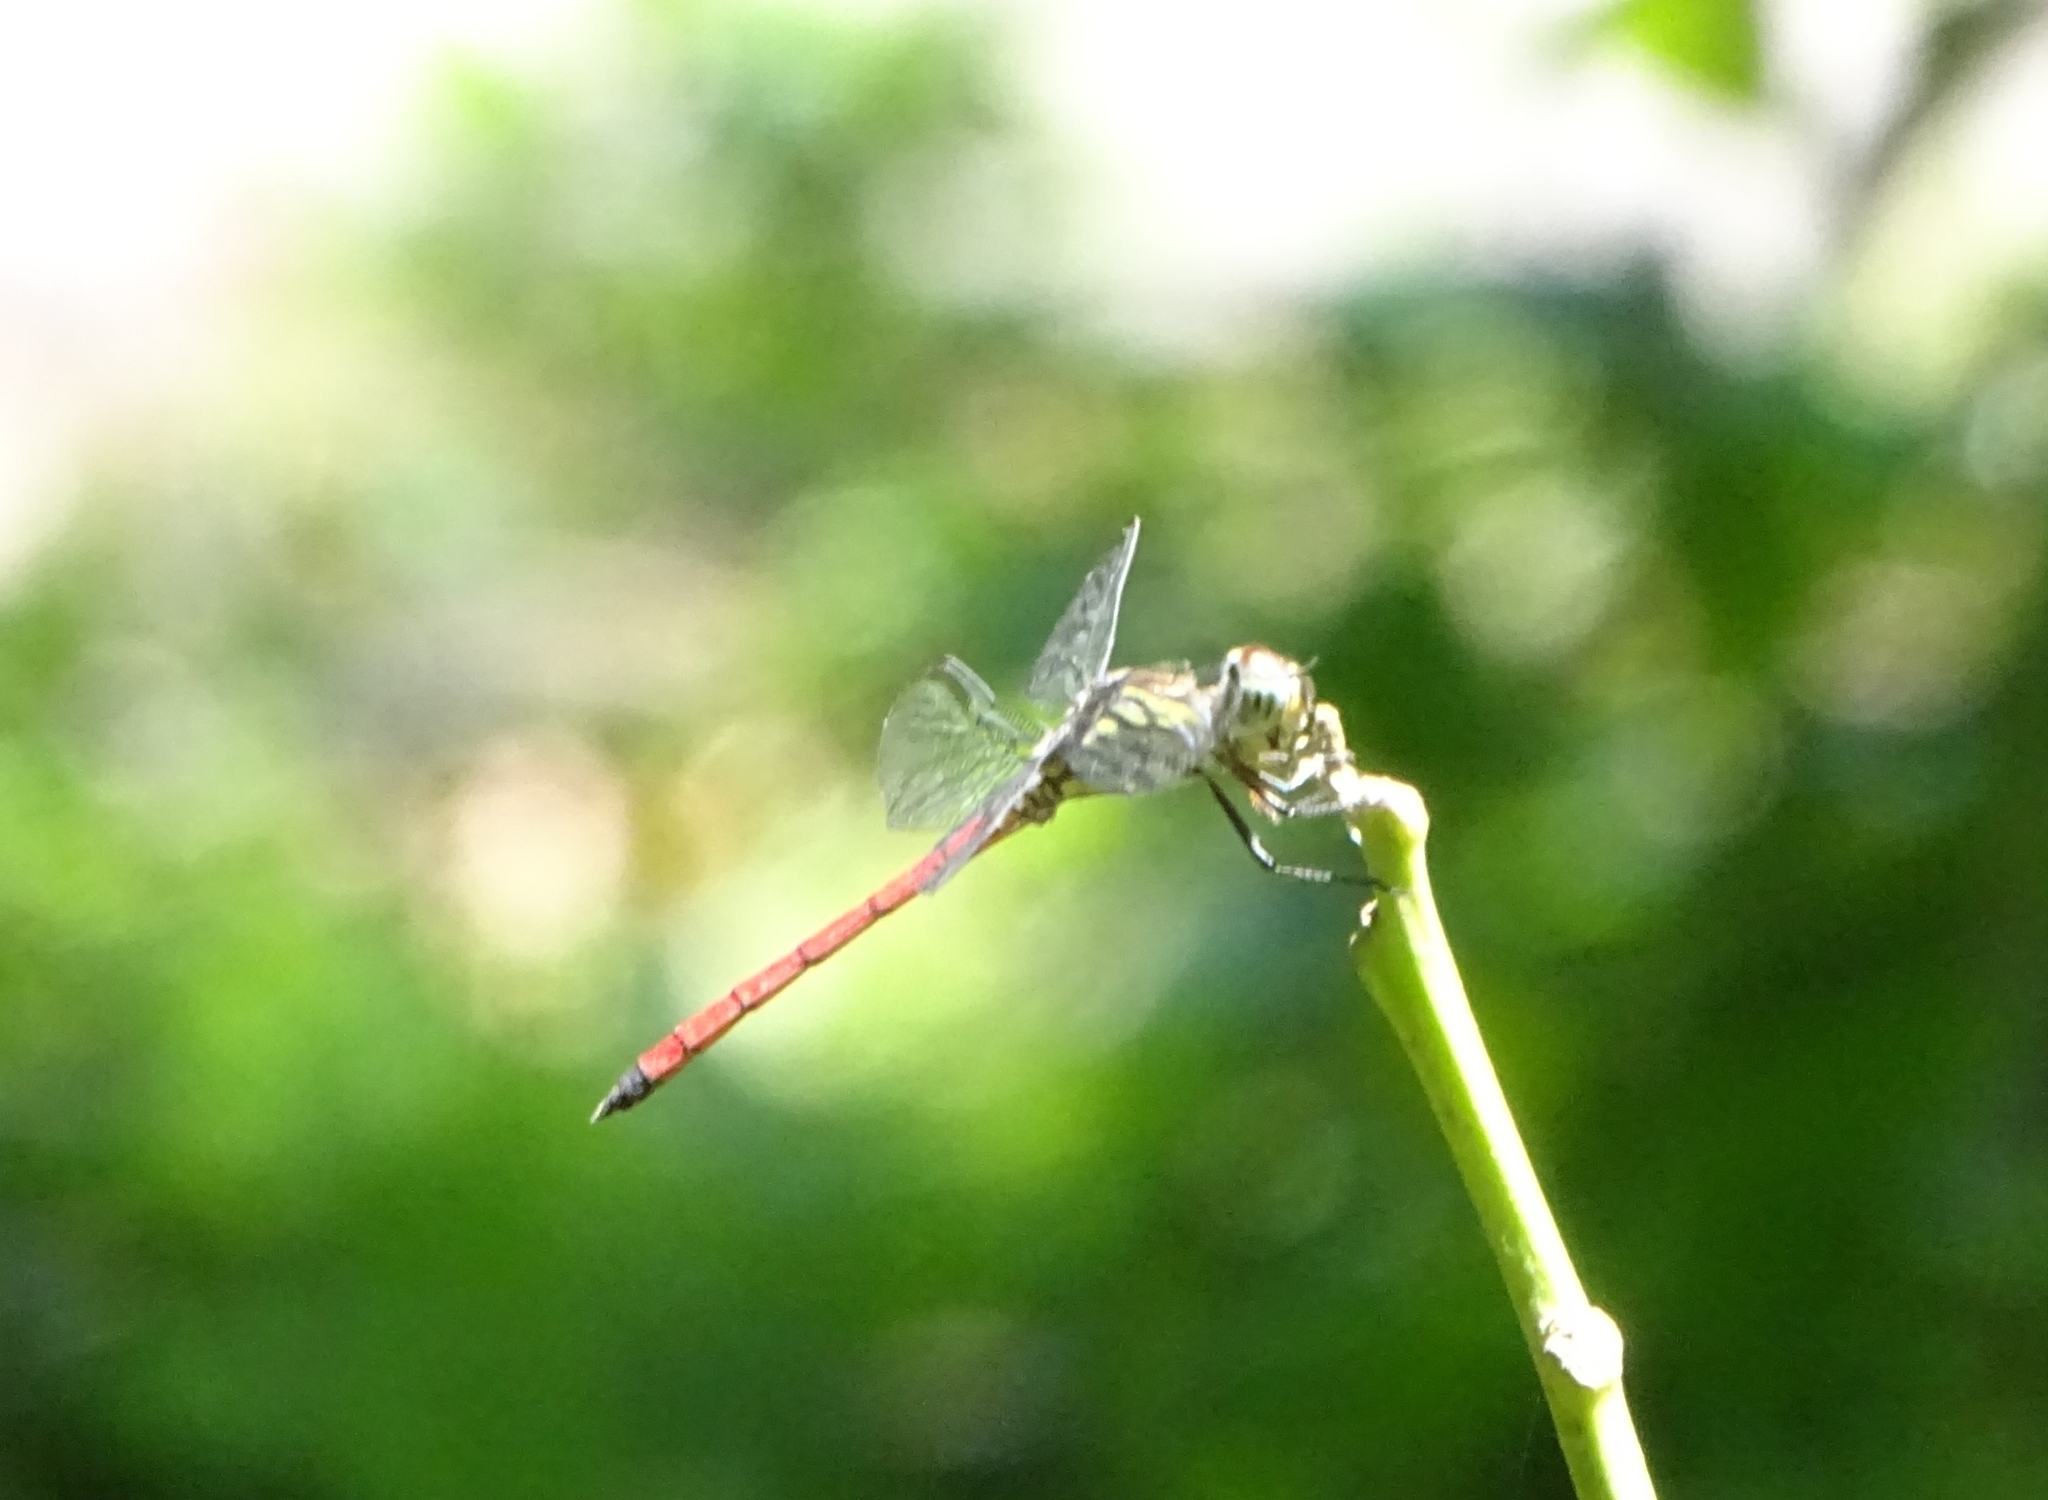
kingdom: Animalia
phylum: Arthropoda
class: Insecta
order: Odonata
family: Libellulidae
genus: Lathrecista
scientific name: Lathrecista asiatica
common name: Scarlet grenadier
